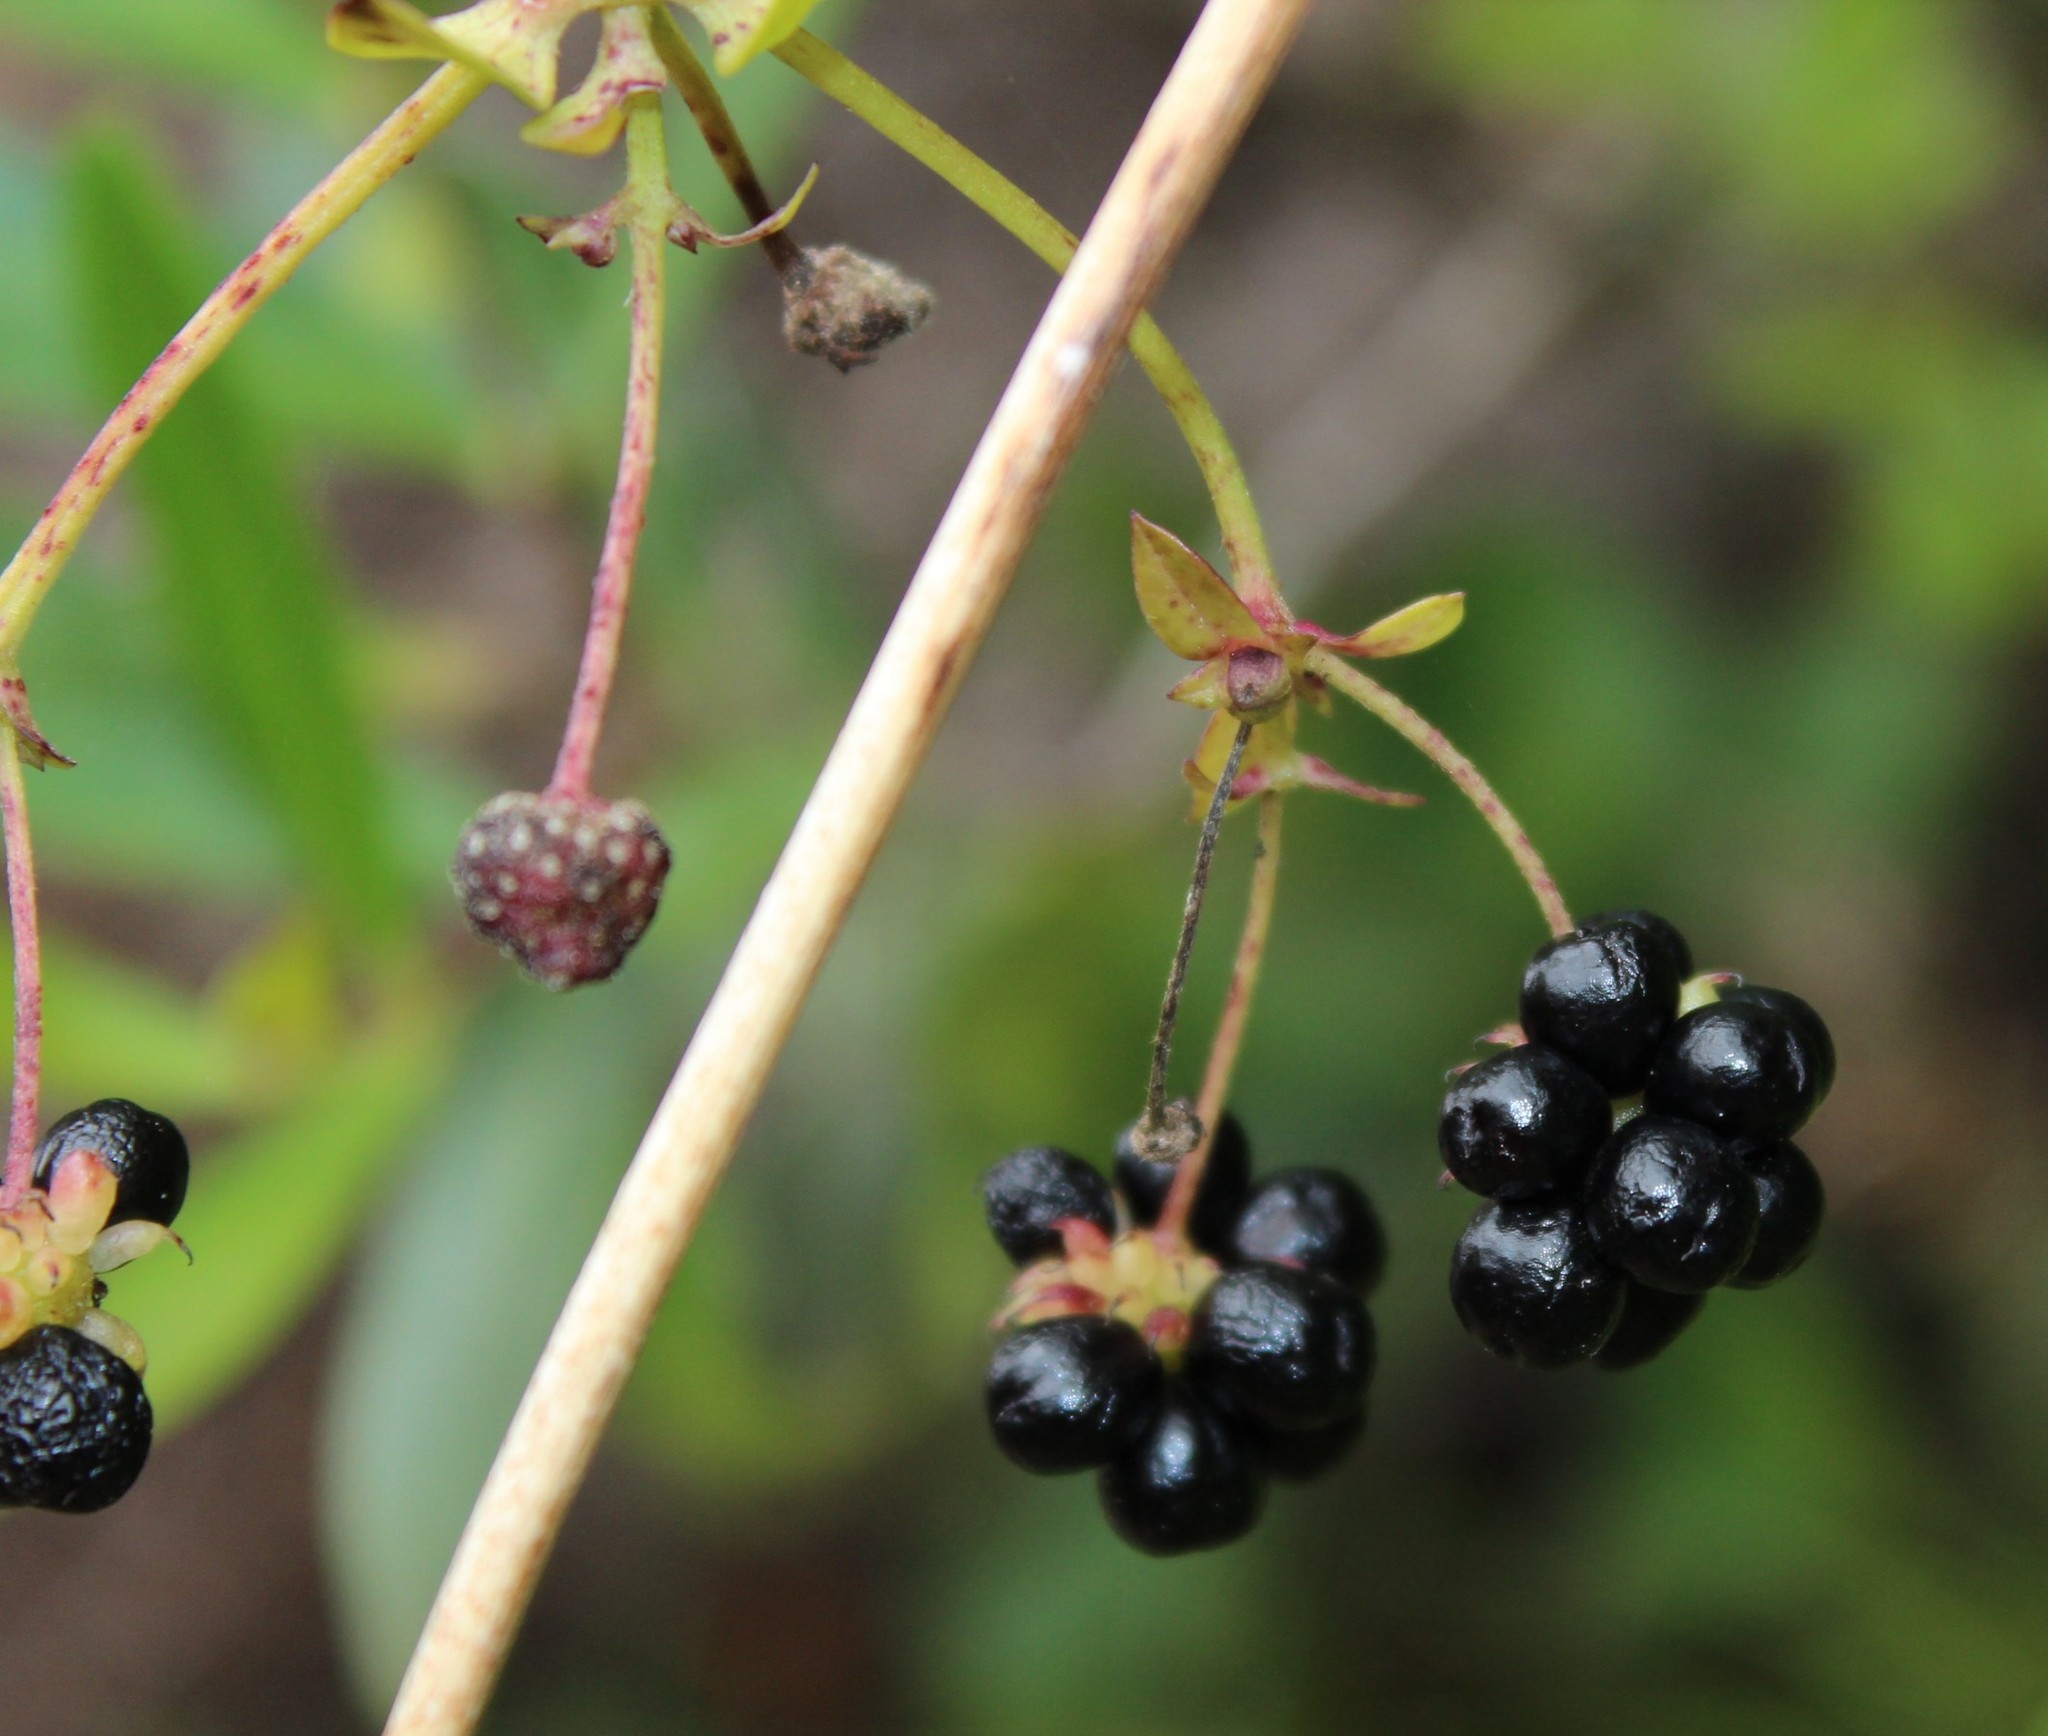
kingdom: Plantae
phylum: Tracheophyta
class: Magnoliopsida
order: Ranunculales
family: Ranunculaceae
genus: Knowltonia
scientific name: Knowltonia vesicatoria
